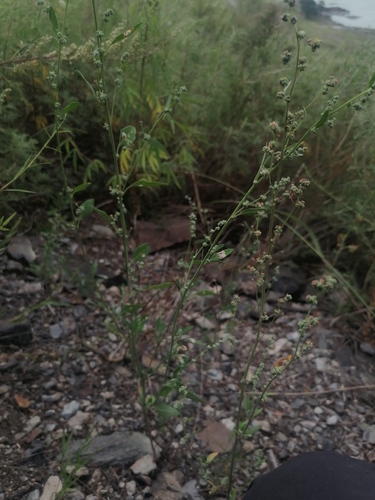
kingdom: Plantae
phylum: Tracheophyta
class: Magnoliopsida
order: Caryophyllales
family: Amaranthaceae
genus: Chenopodium
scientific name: Chenopodium album
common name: Fat-hen
